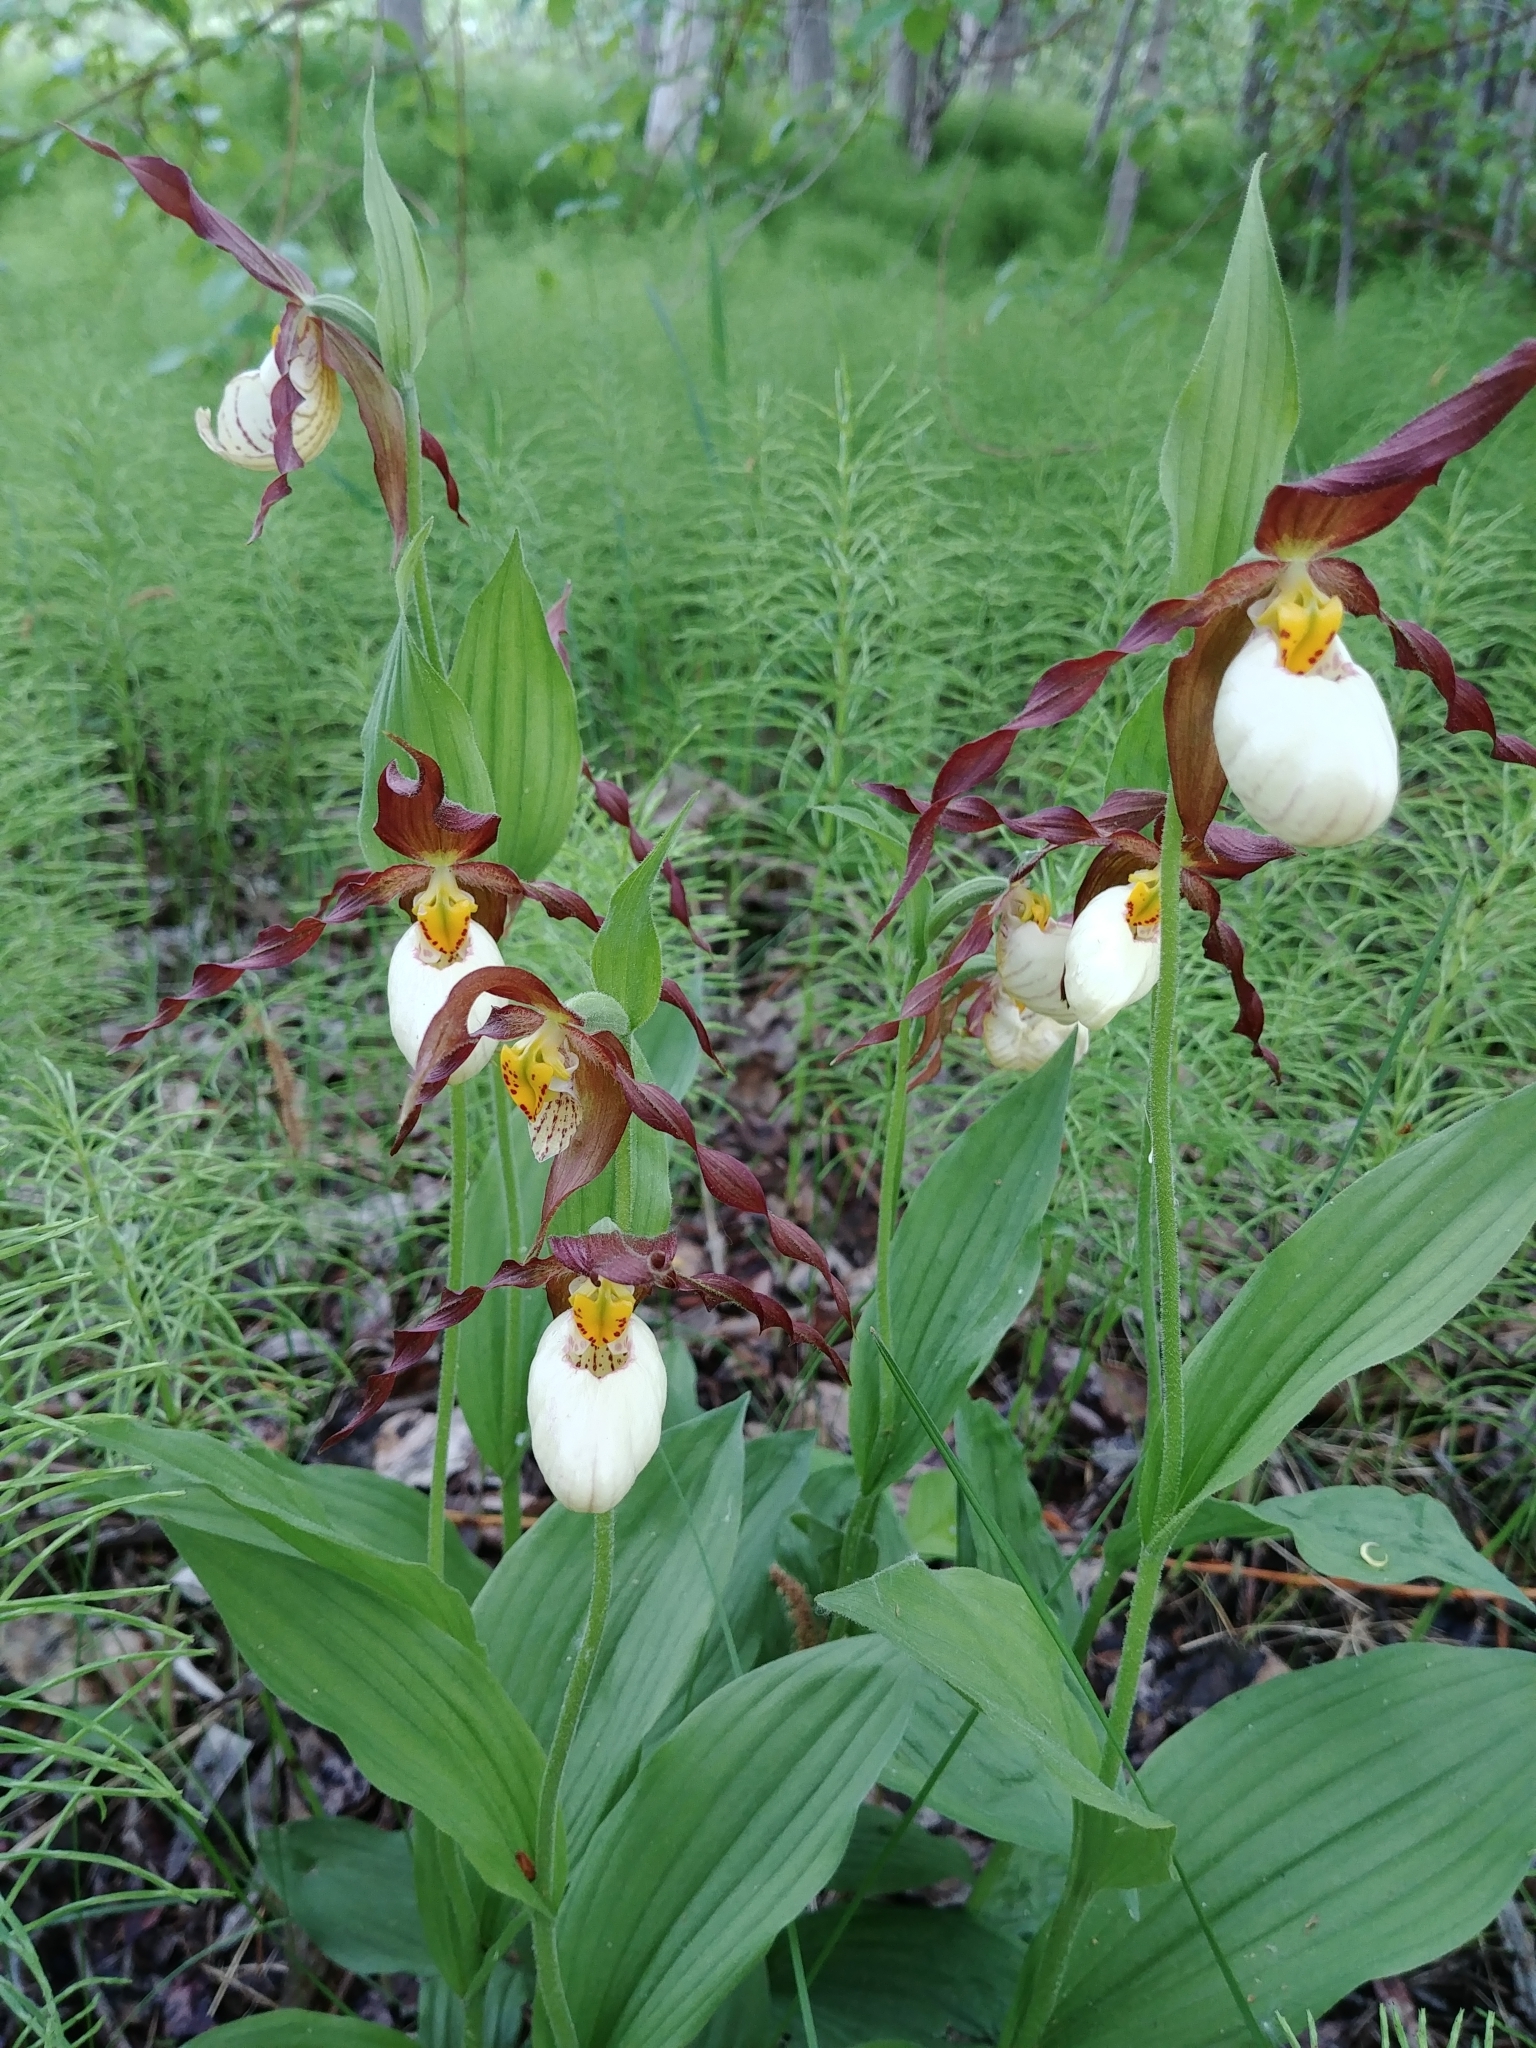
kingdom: Plantae
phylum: Tracheophyta
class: Liliopsida
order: Asparagales
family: Orchidaceae
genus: Cypripedium
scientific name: Cypripedium montanum
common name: Mountain lady's-slipper
